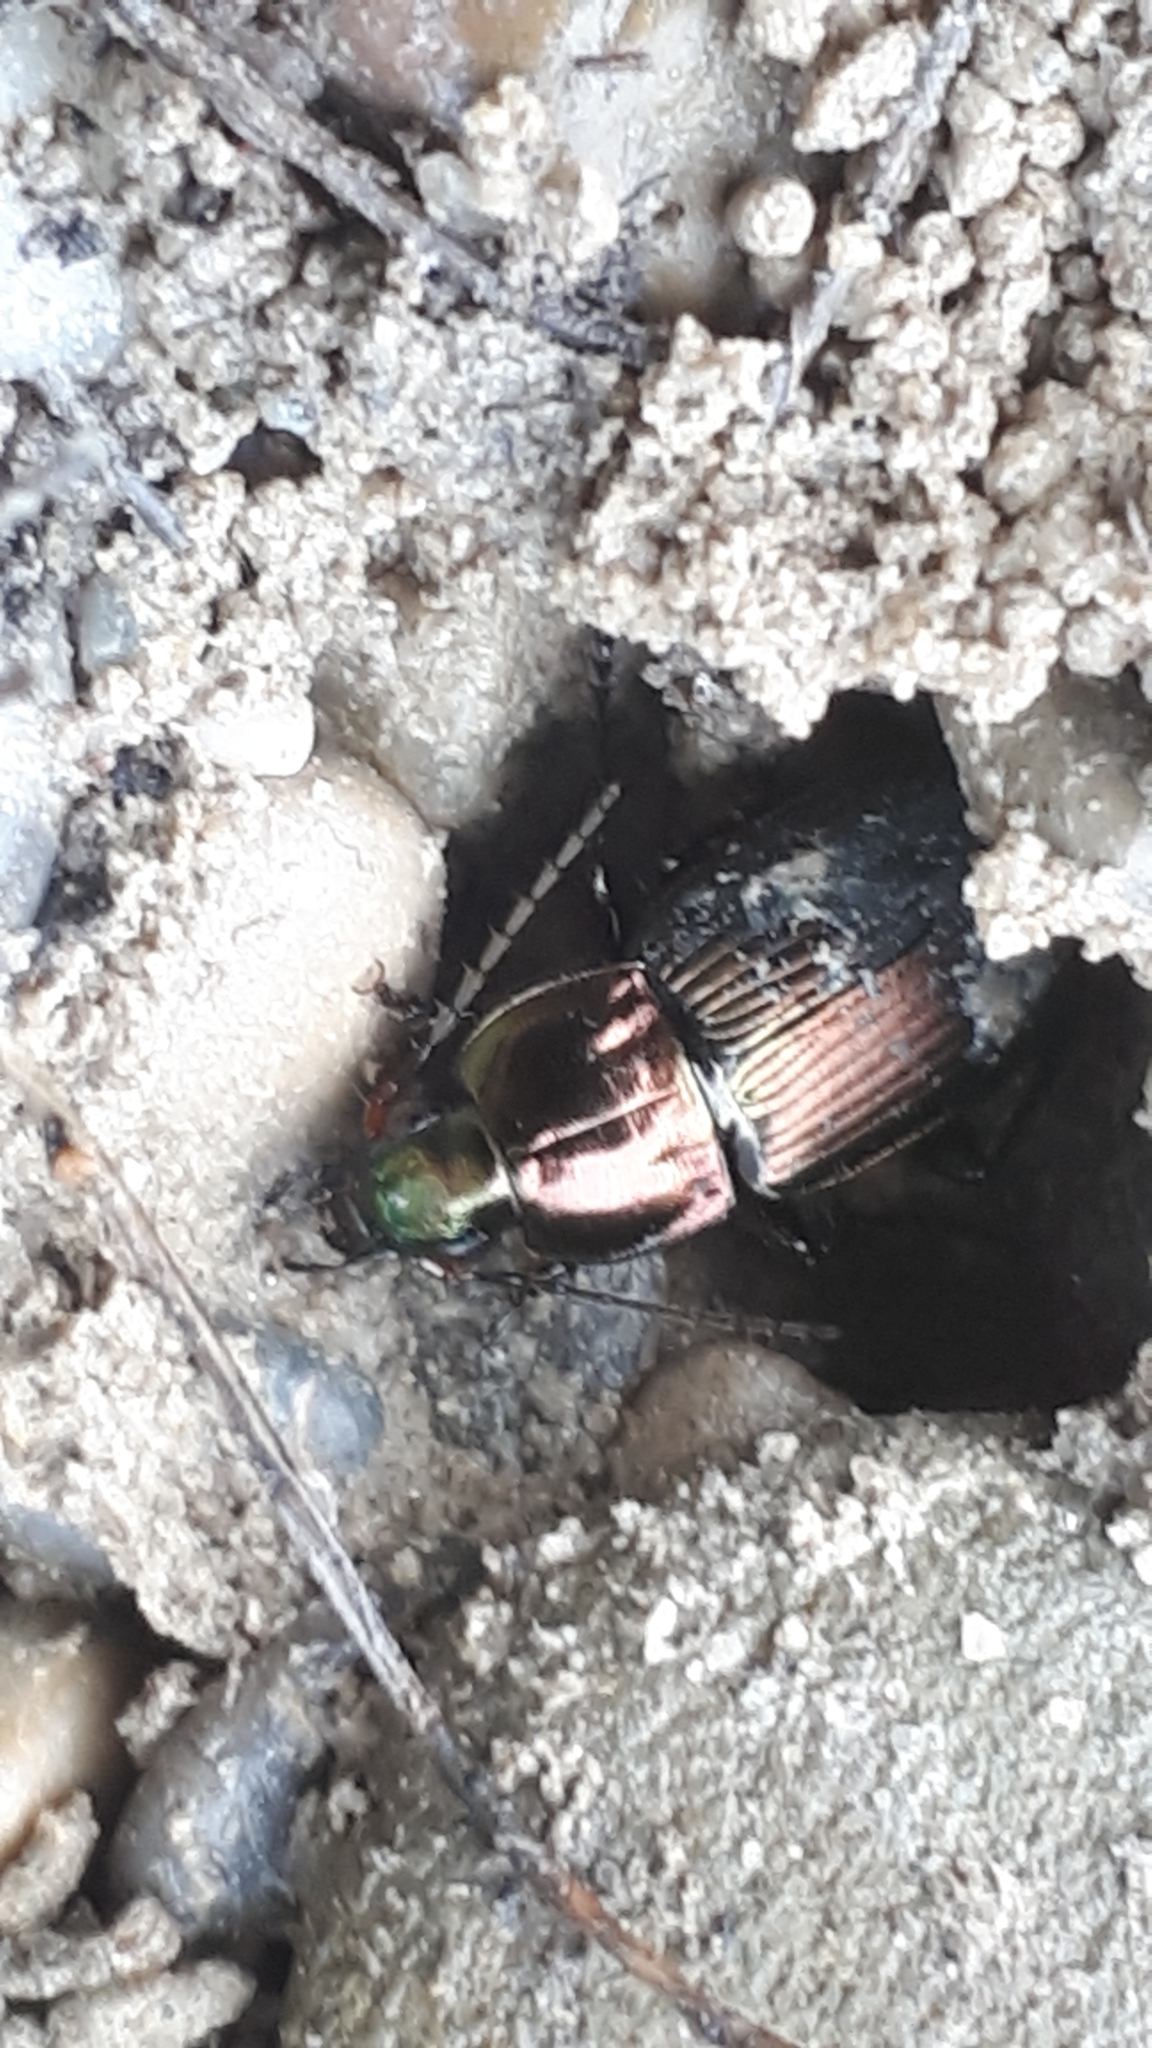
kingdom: Animalia
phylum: Arthropoda
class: Insecta
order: Coleoptera
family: Carabidae
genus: Poecilus
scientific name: Poecilus versicolor
